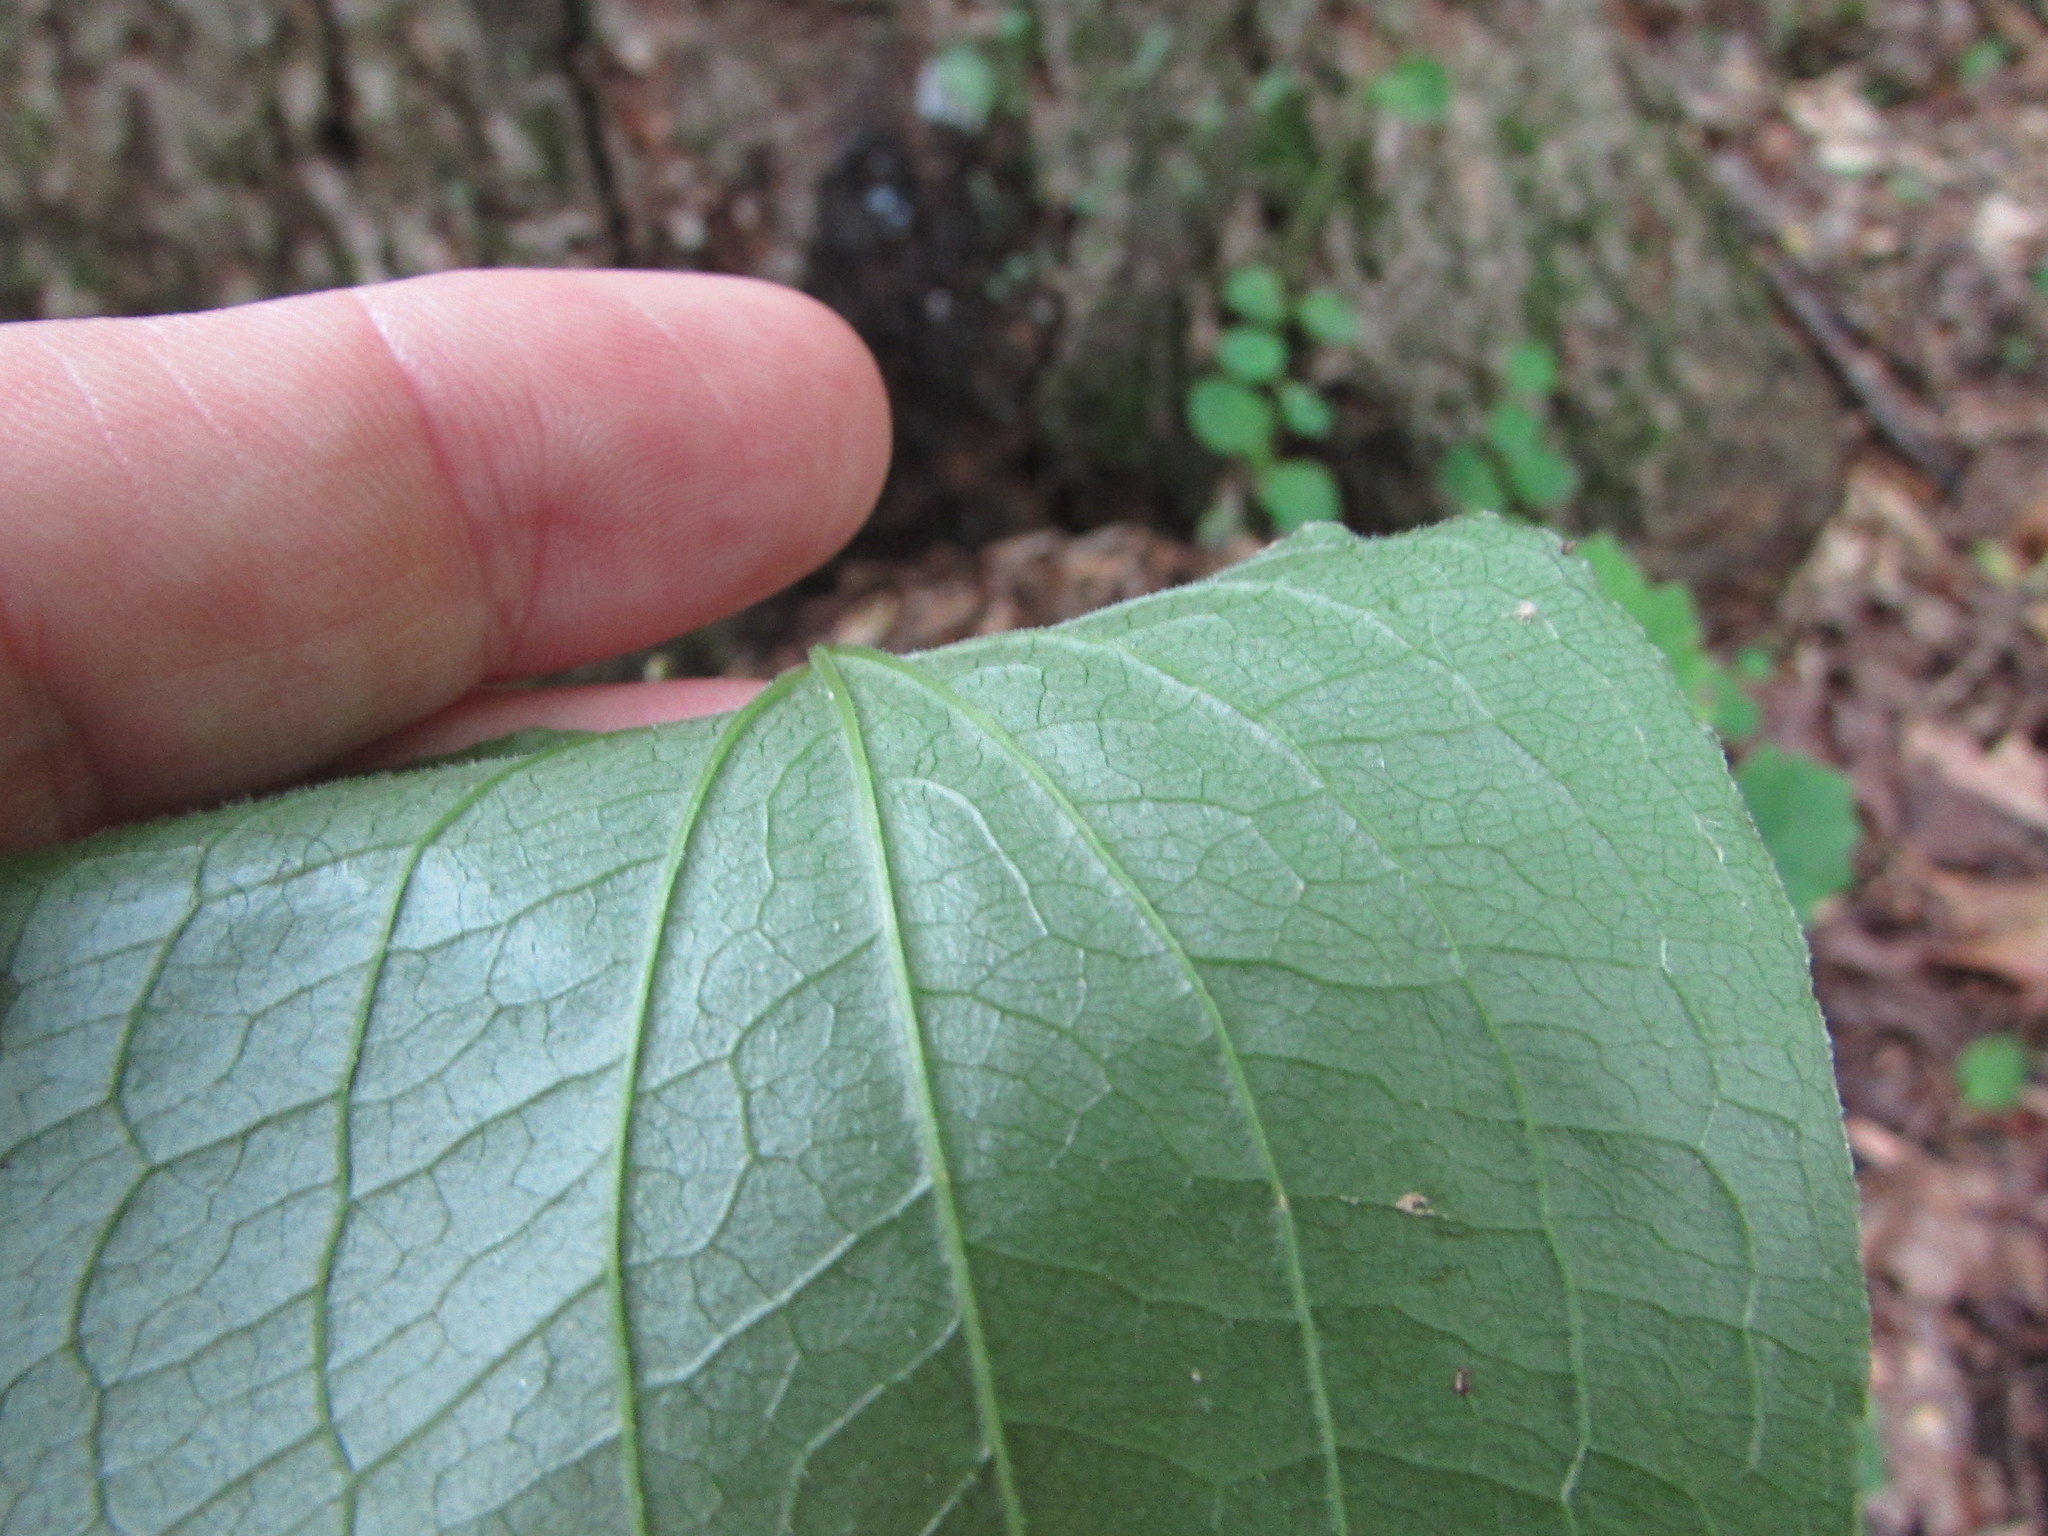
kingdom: Plantae
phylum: Tracheophyta
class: Liliopsida
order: Liliales
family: Smilacaceae
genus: Smilax
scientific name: Smilax pulverulenta
